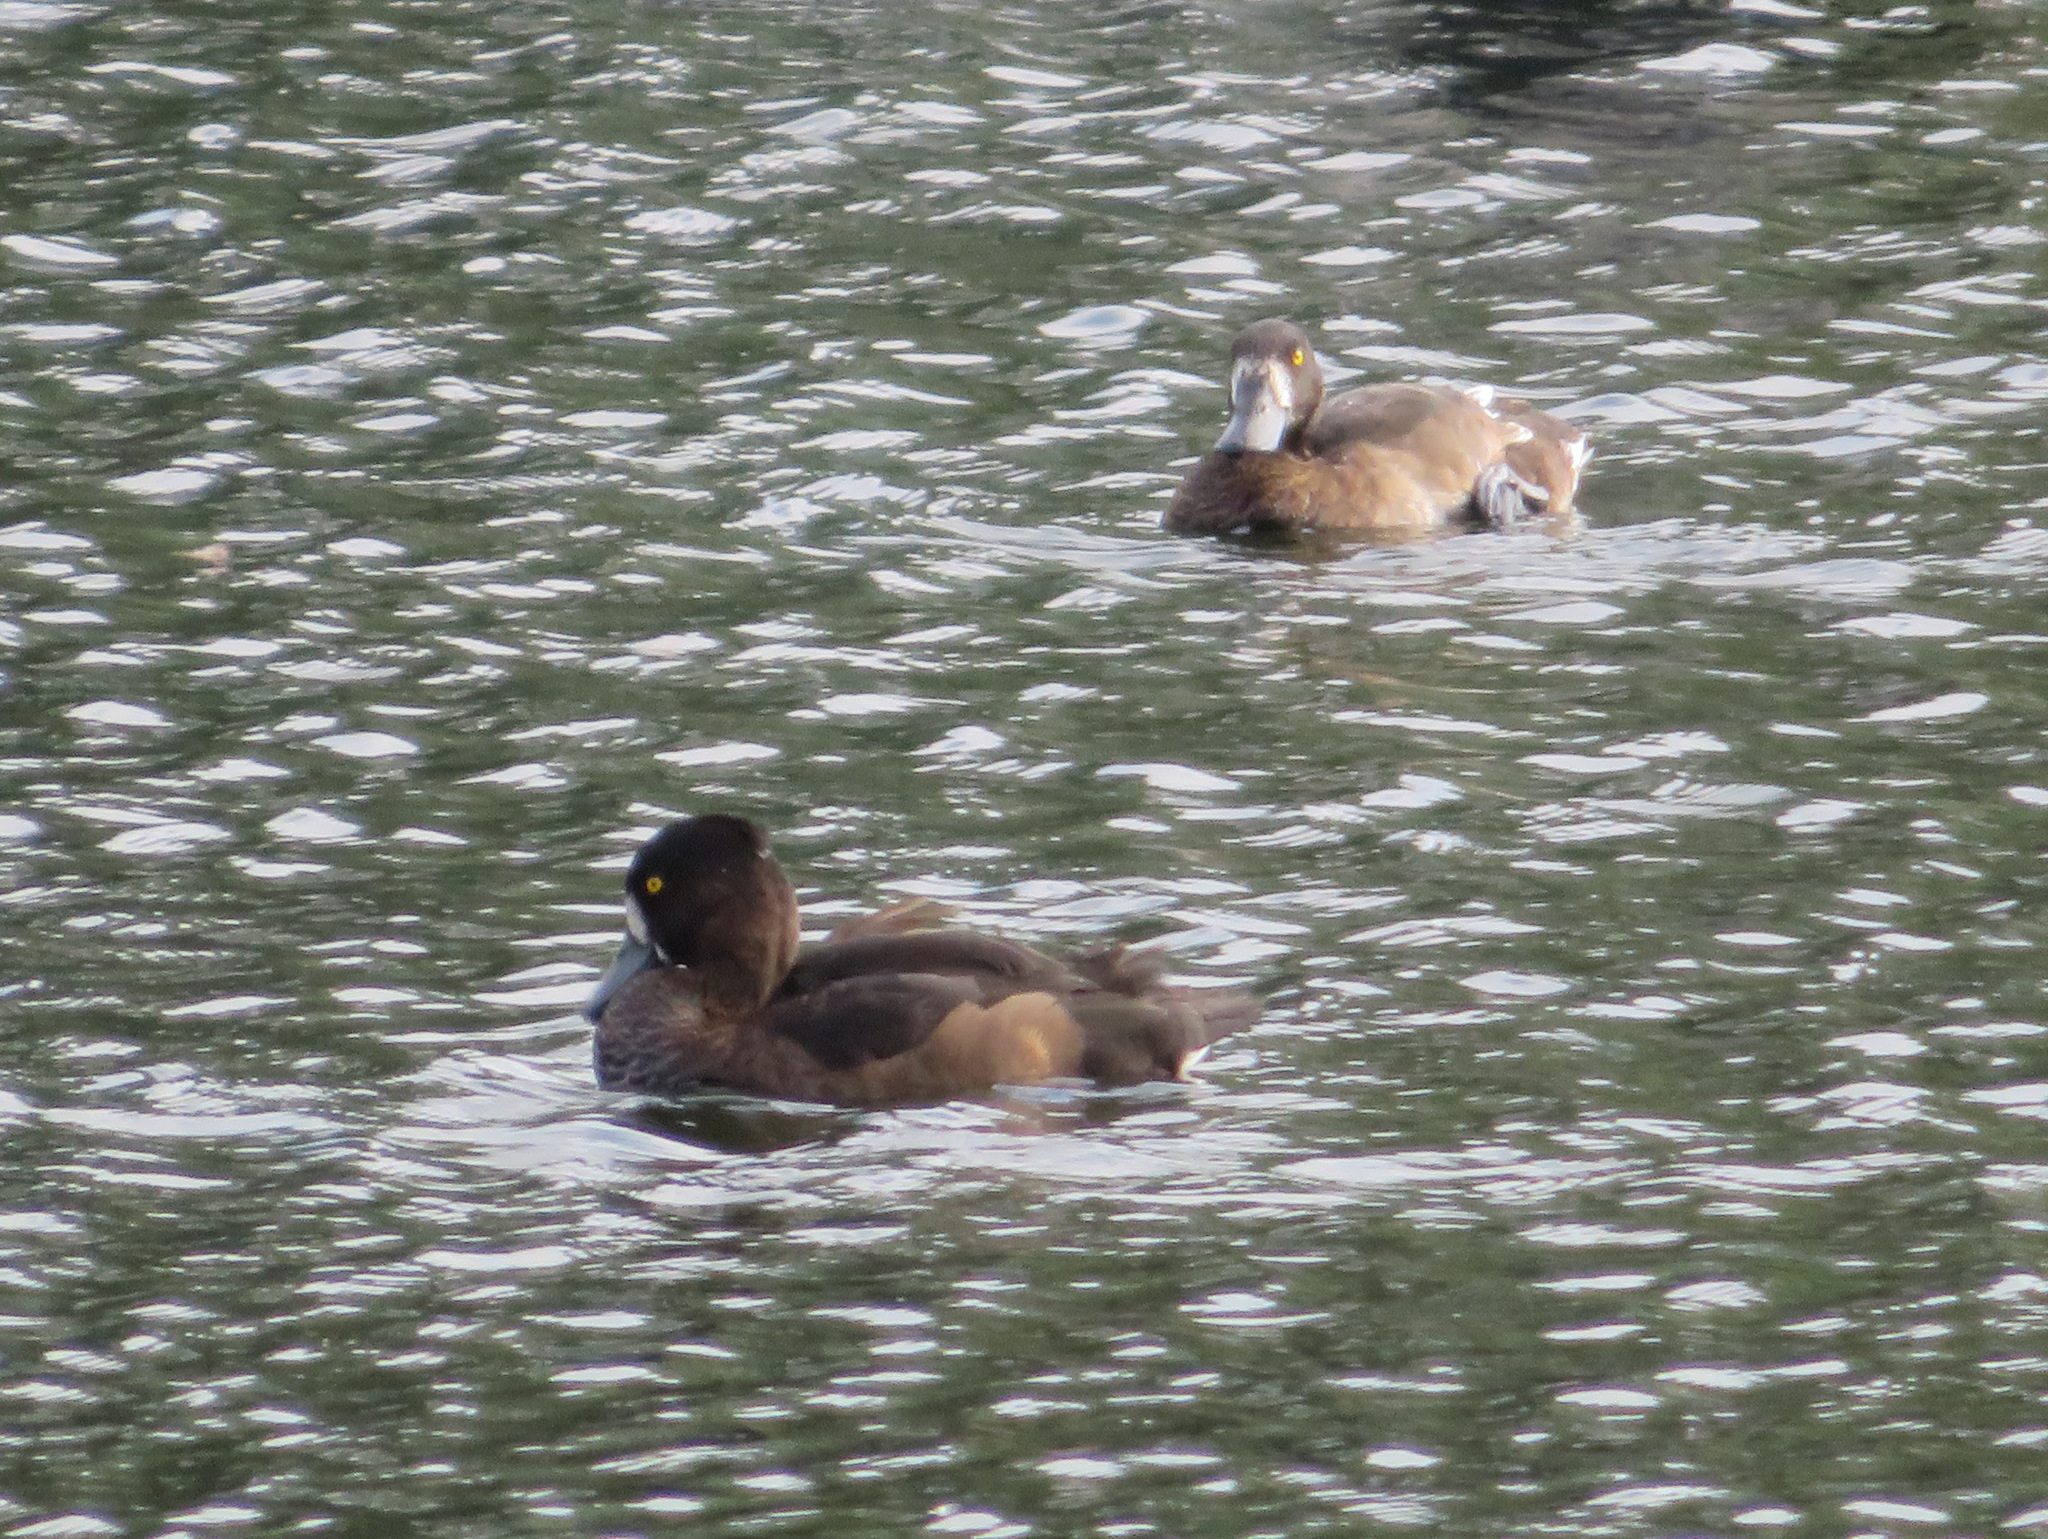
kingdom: Animalia
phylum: Chordata
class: Aves
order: Anseriformes
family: Anatidae
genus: Aythya
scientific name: Aythya fuligula
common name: Tufted duck
